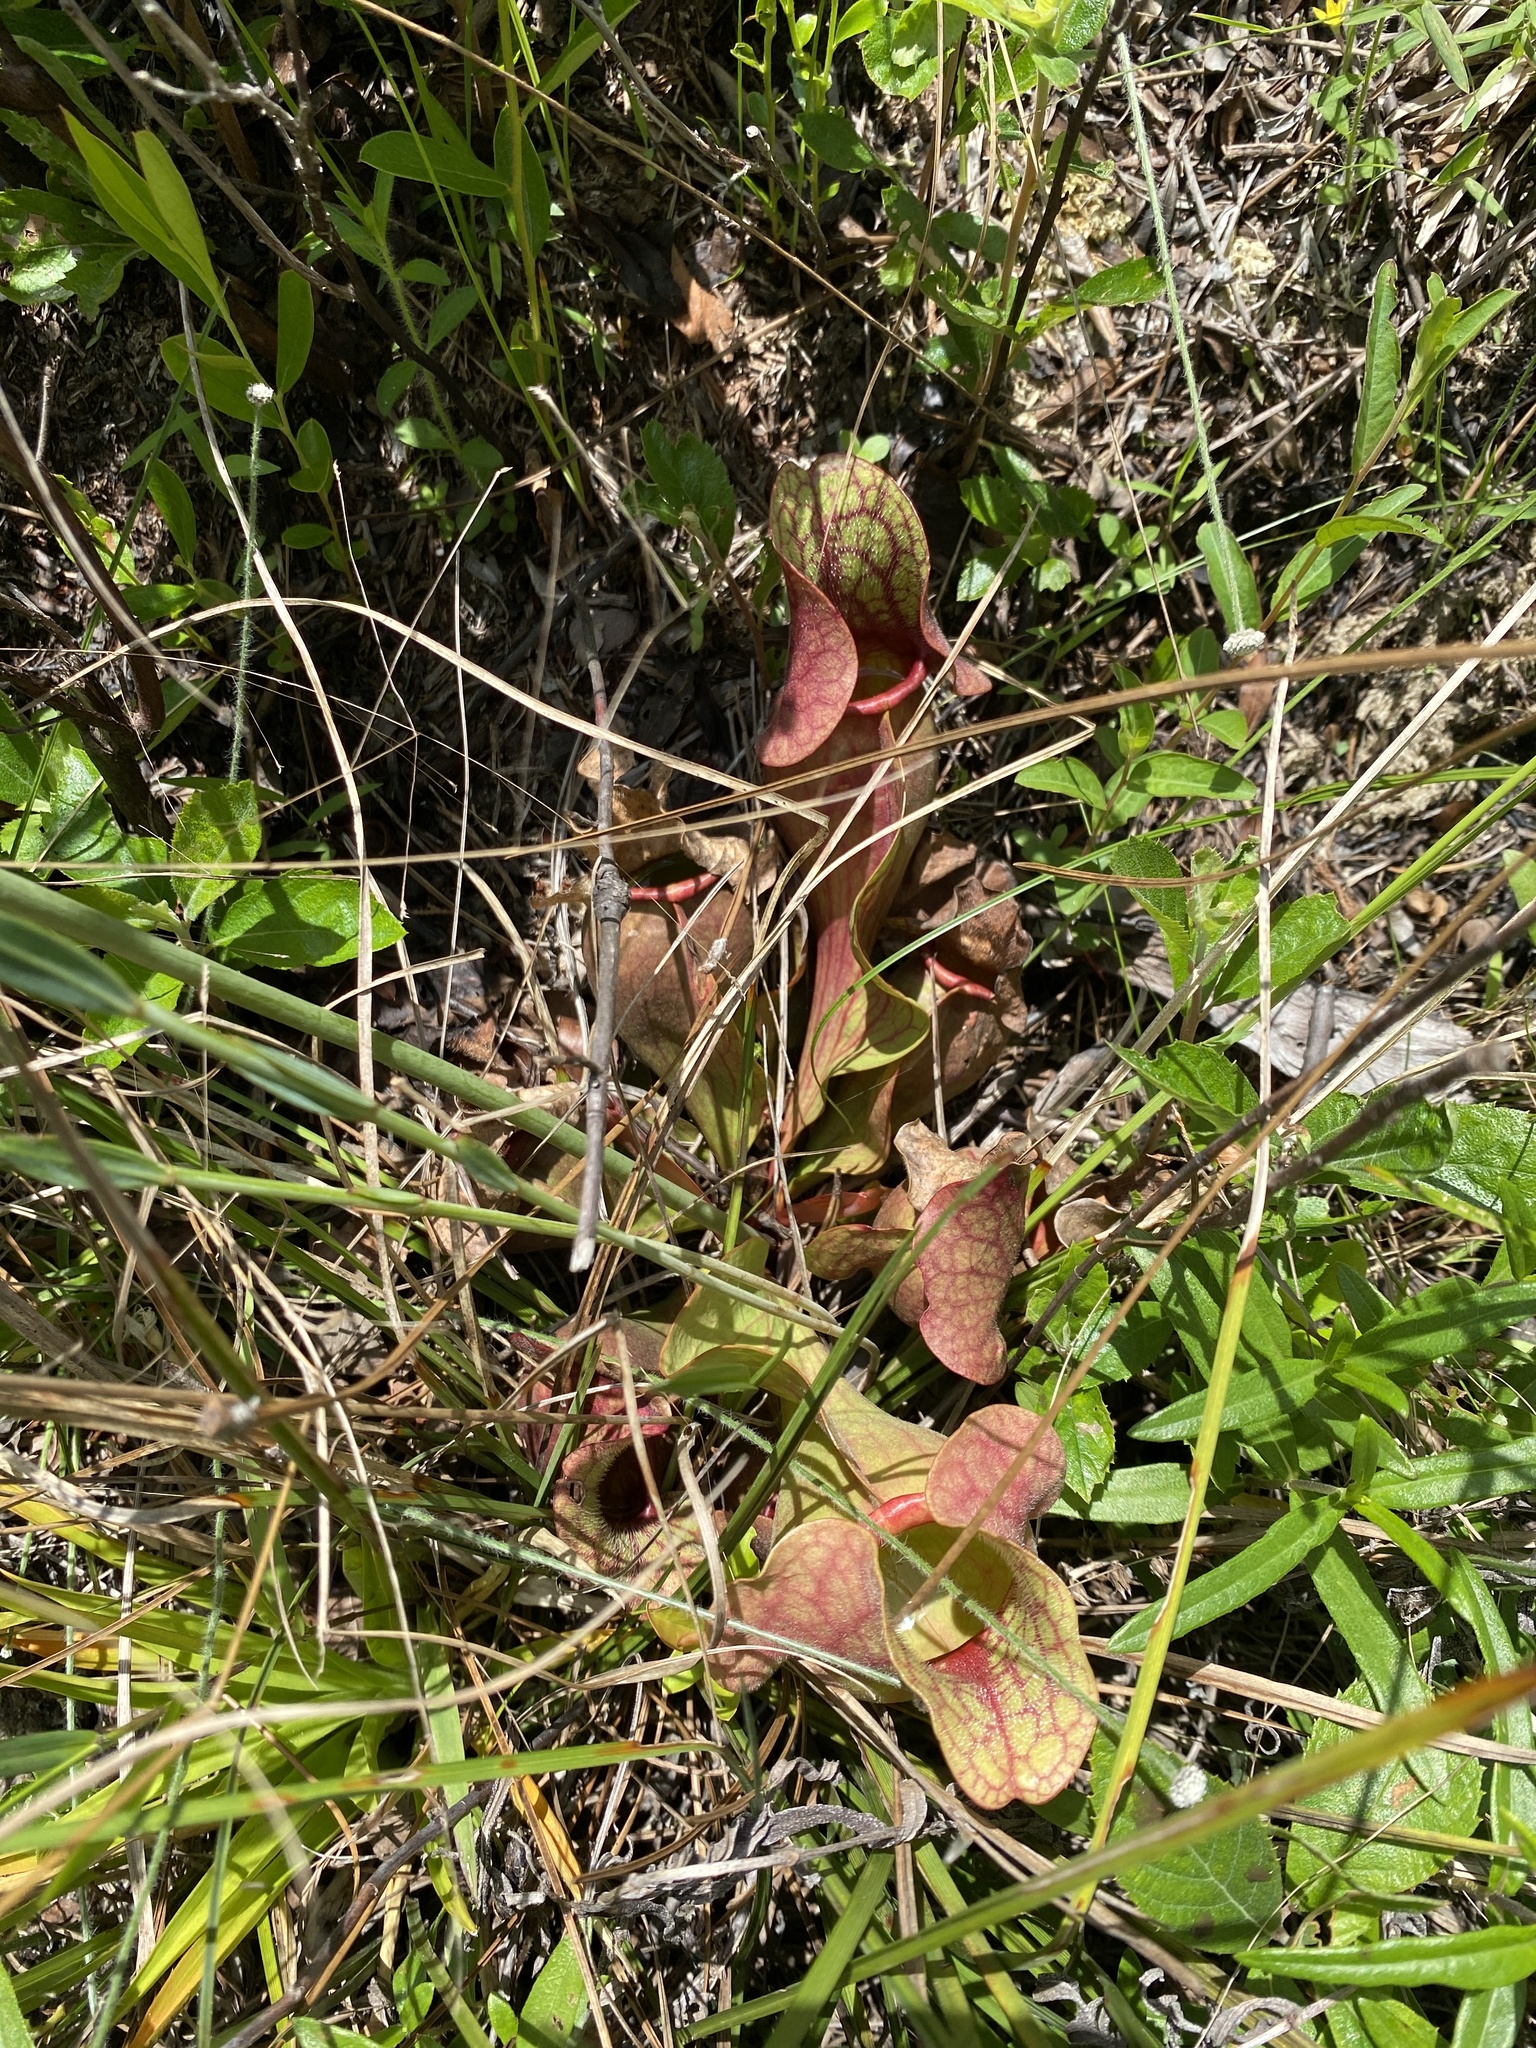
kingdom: Plantae
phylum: Tracheophyta
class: Magnoliopsida
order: Ericales
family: Sarraceniaceae
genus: Sarracenia
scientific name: Sarracenia rosea
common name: Pink pitcherplant
